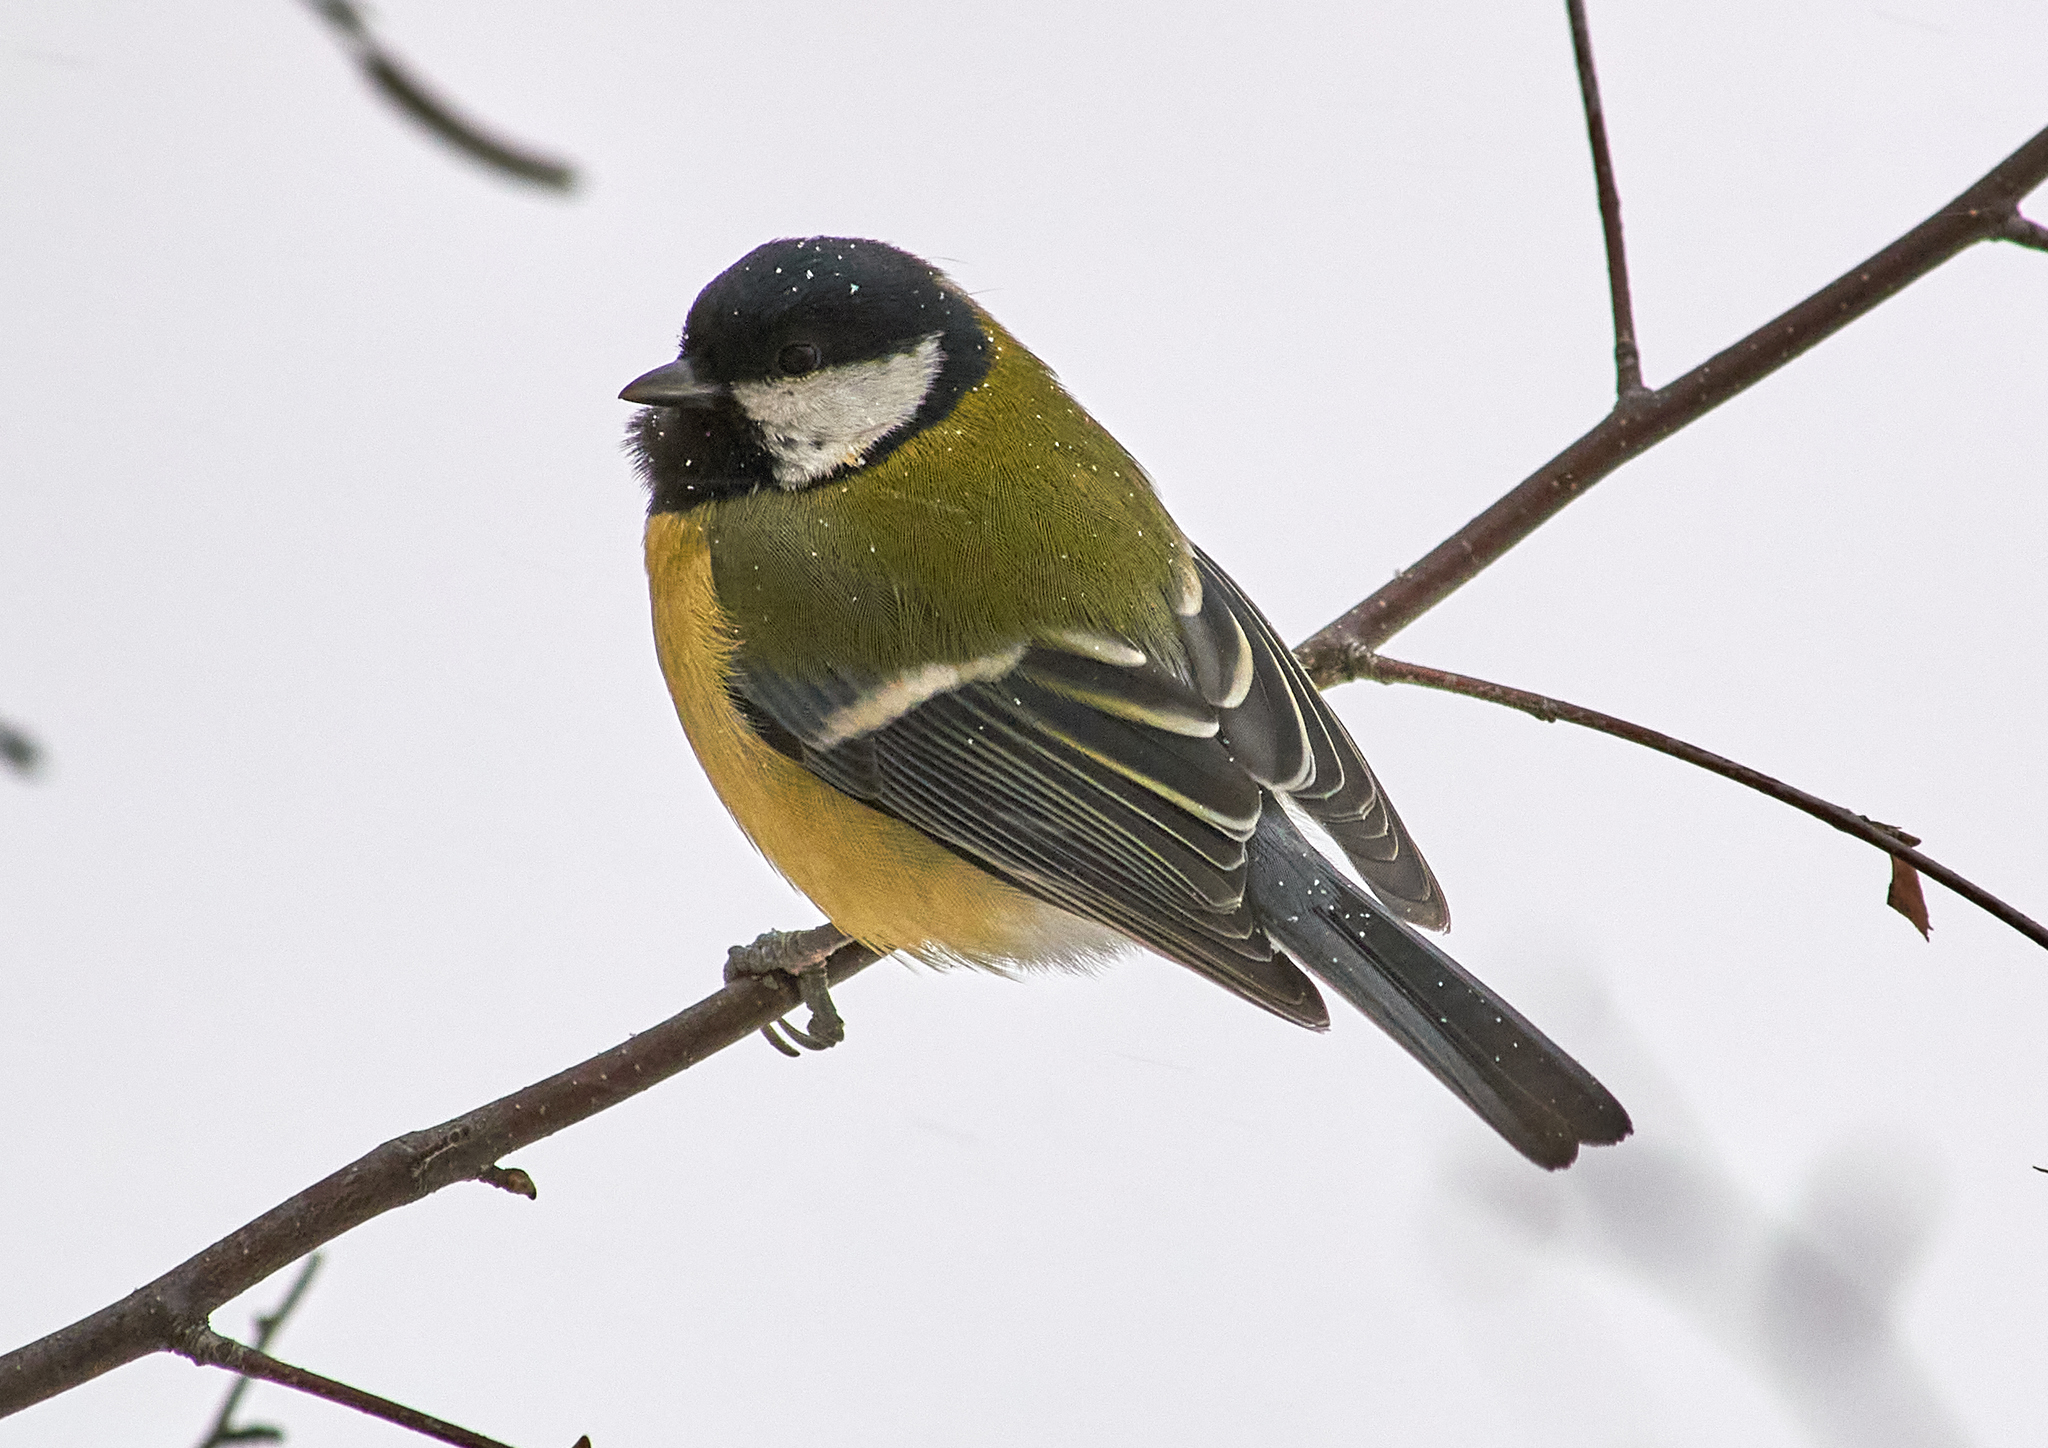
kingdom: Animalia
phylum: Chordata
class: Aves
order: Passeriformes
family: Paridae
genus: Parus
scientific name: Parus major
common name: Great tit
